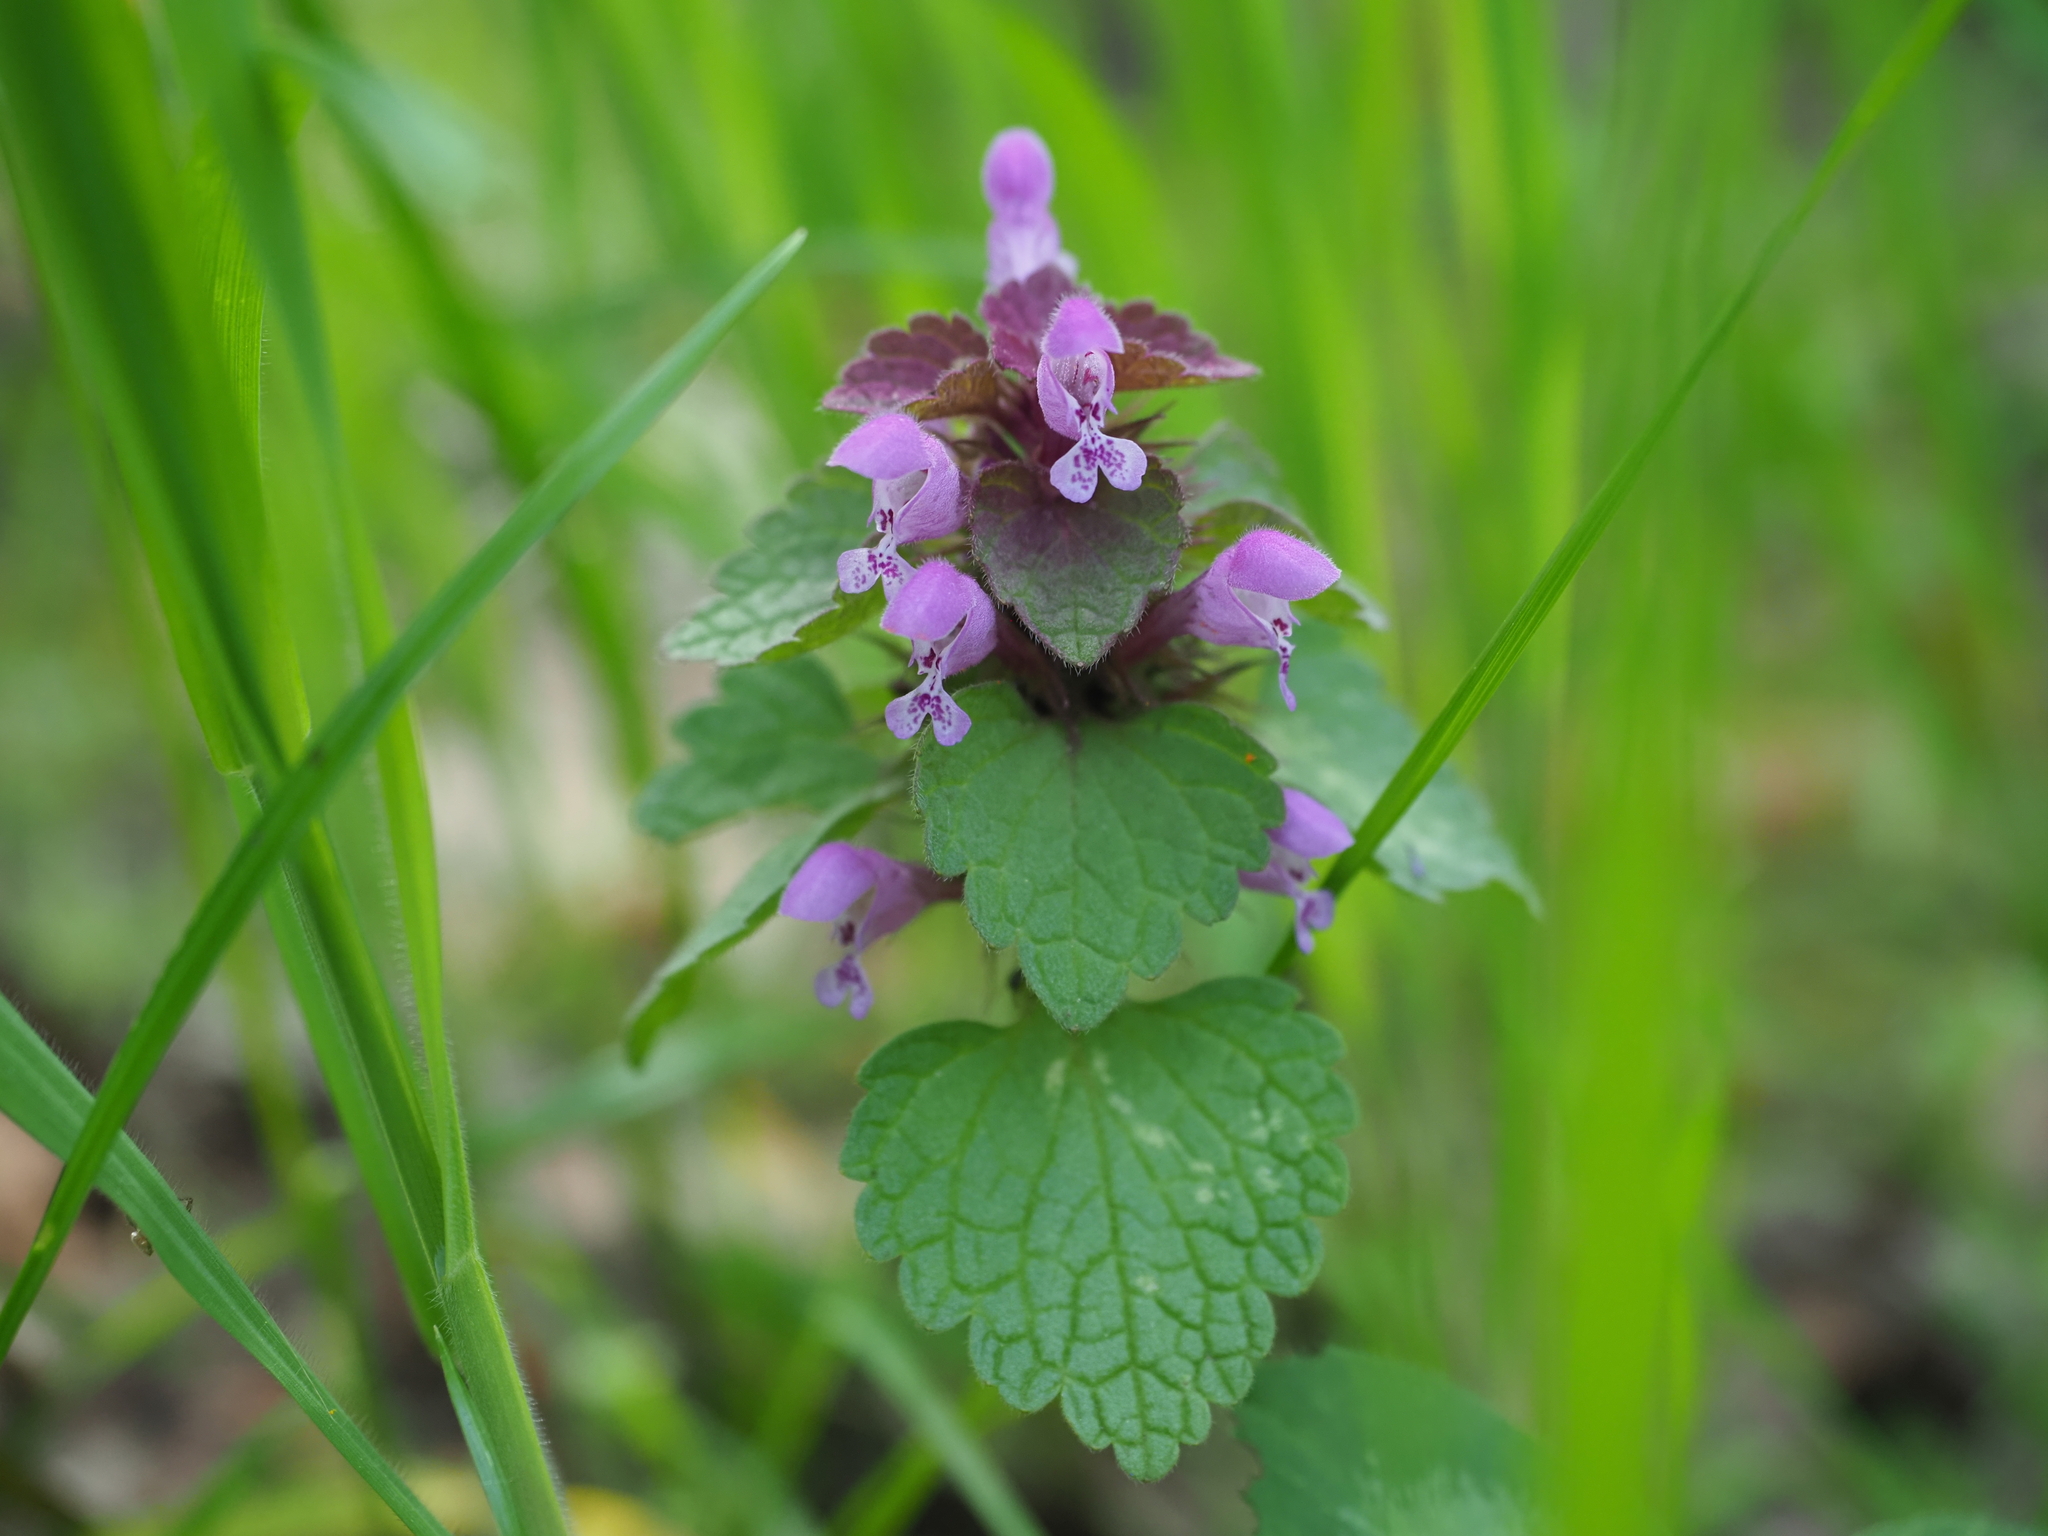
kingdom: Plantae
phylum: Tracheophyta
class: Magnoliopsida
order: Lamiales
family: Lamiaceae
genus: Lamium
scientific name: Lamium purpureum
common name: Red dead-nettle
